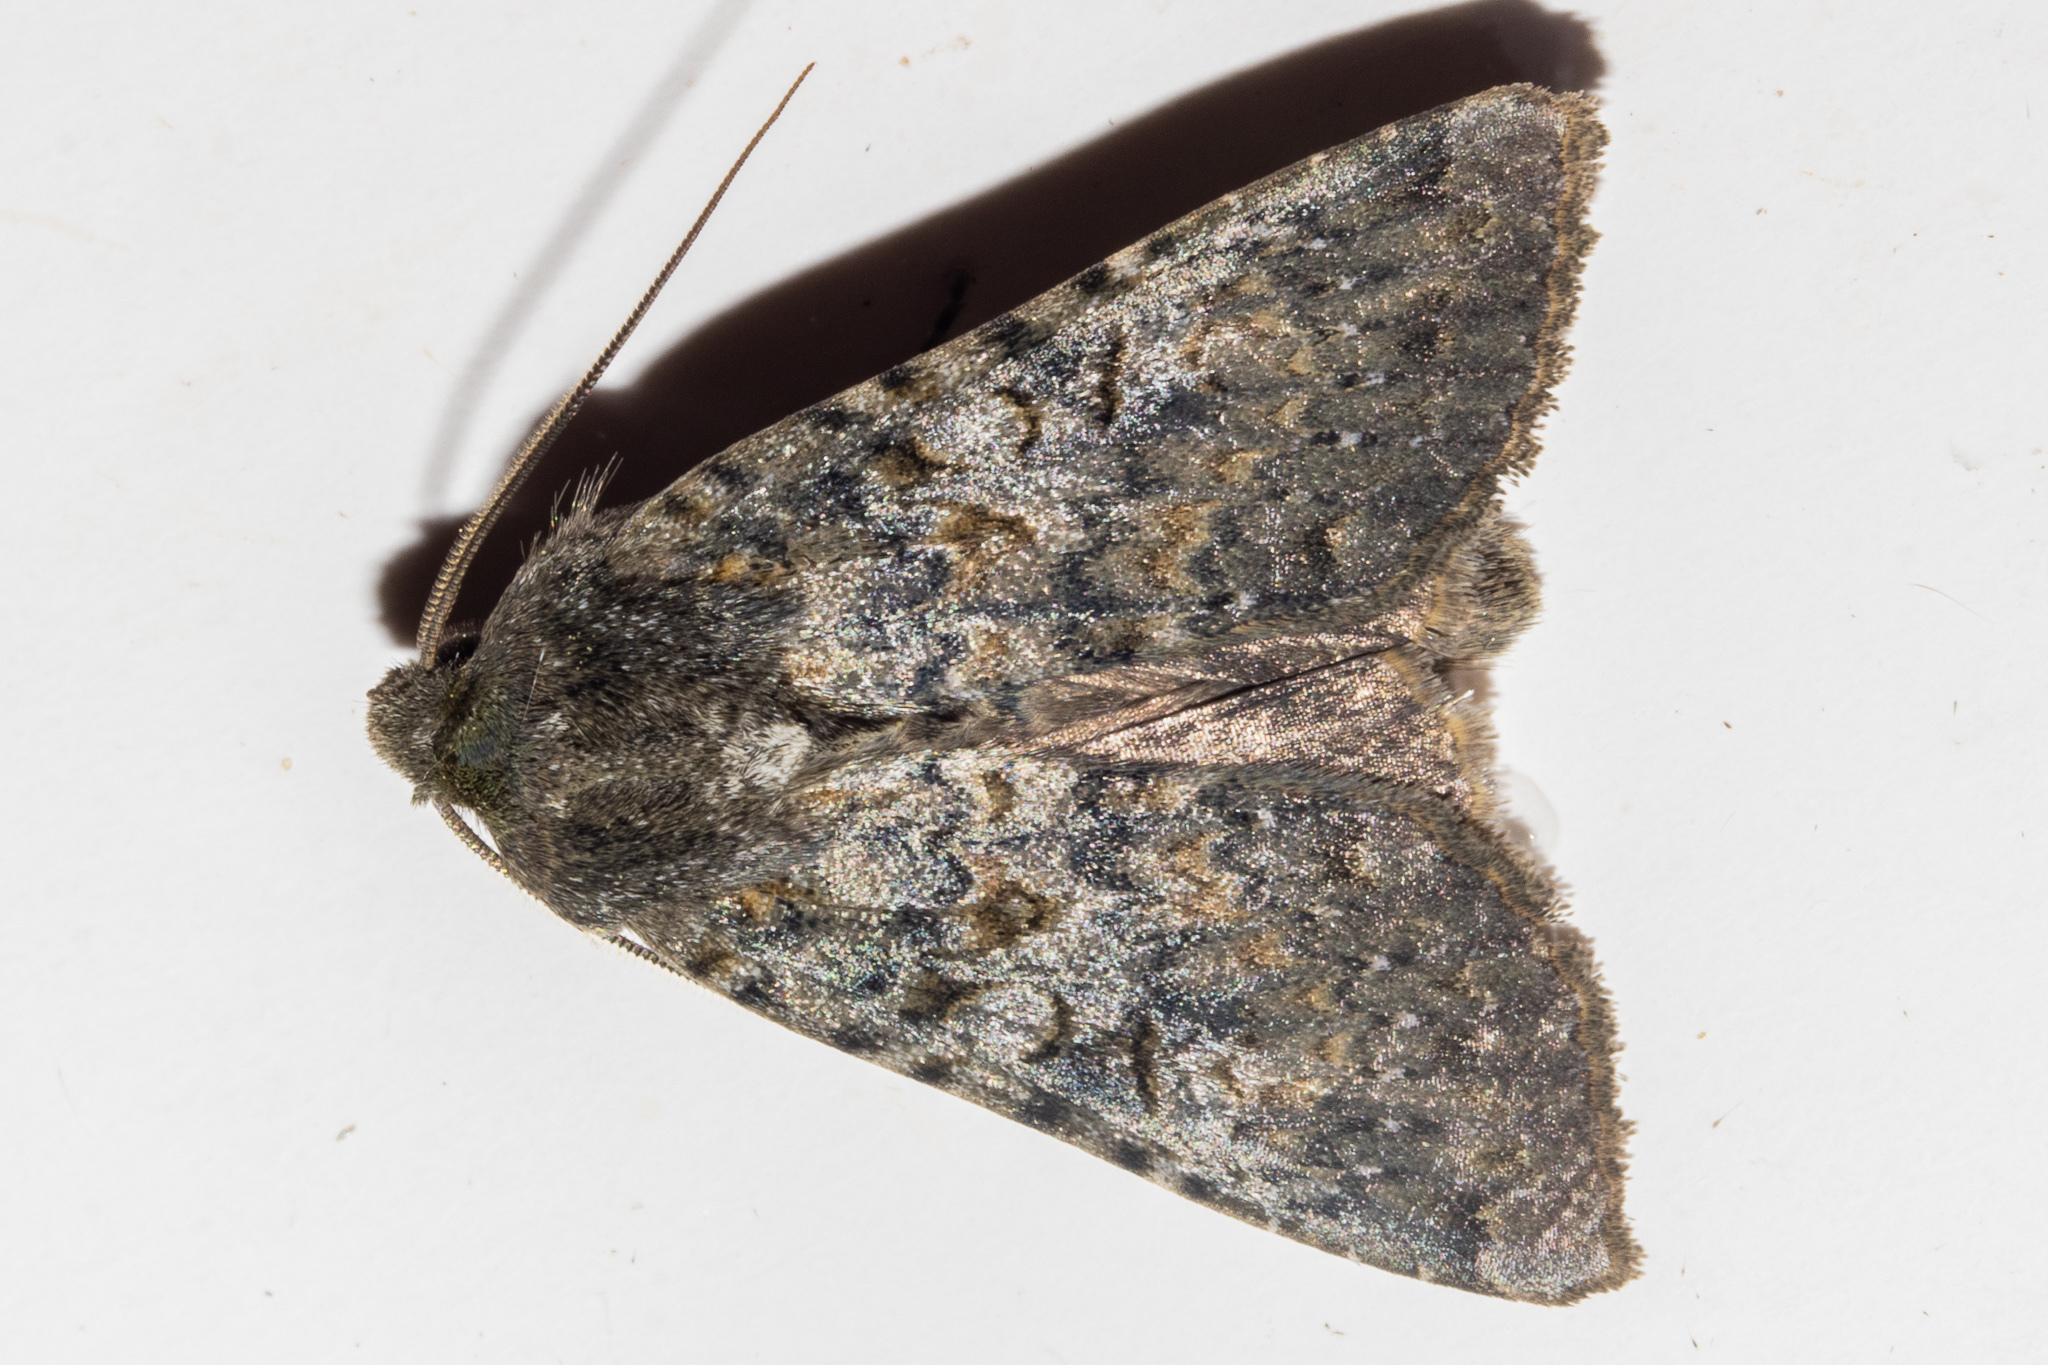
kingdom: Animalia
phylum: Arthropoda
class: Insecta
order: Lepidoptera
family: Noctuidae
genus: Ichneutica
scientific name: Ichneutica
